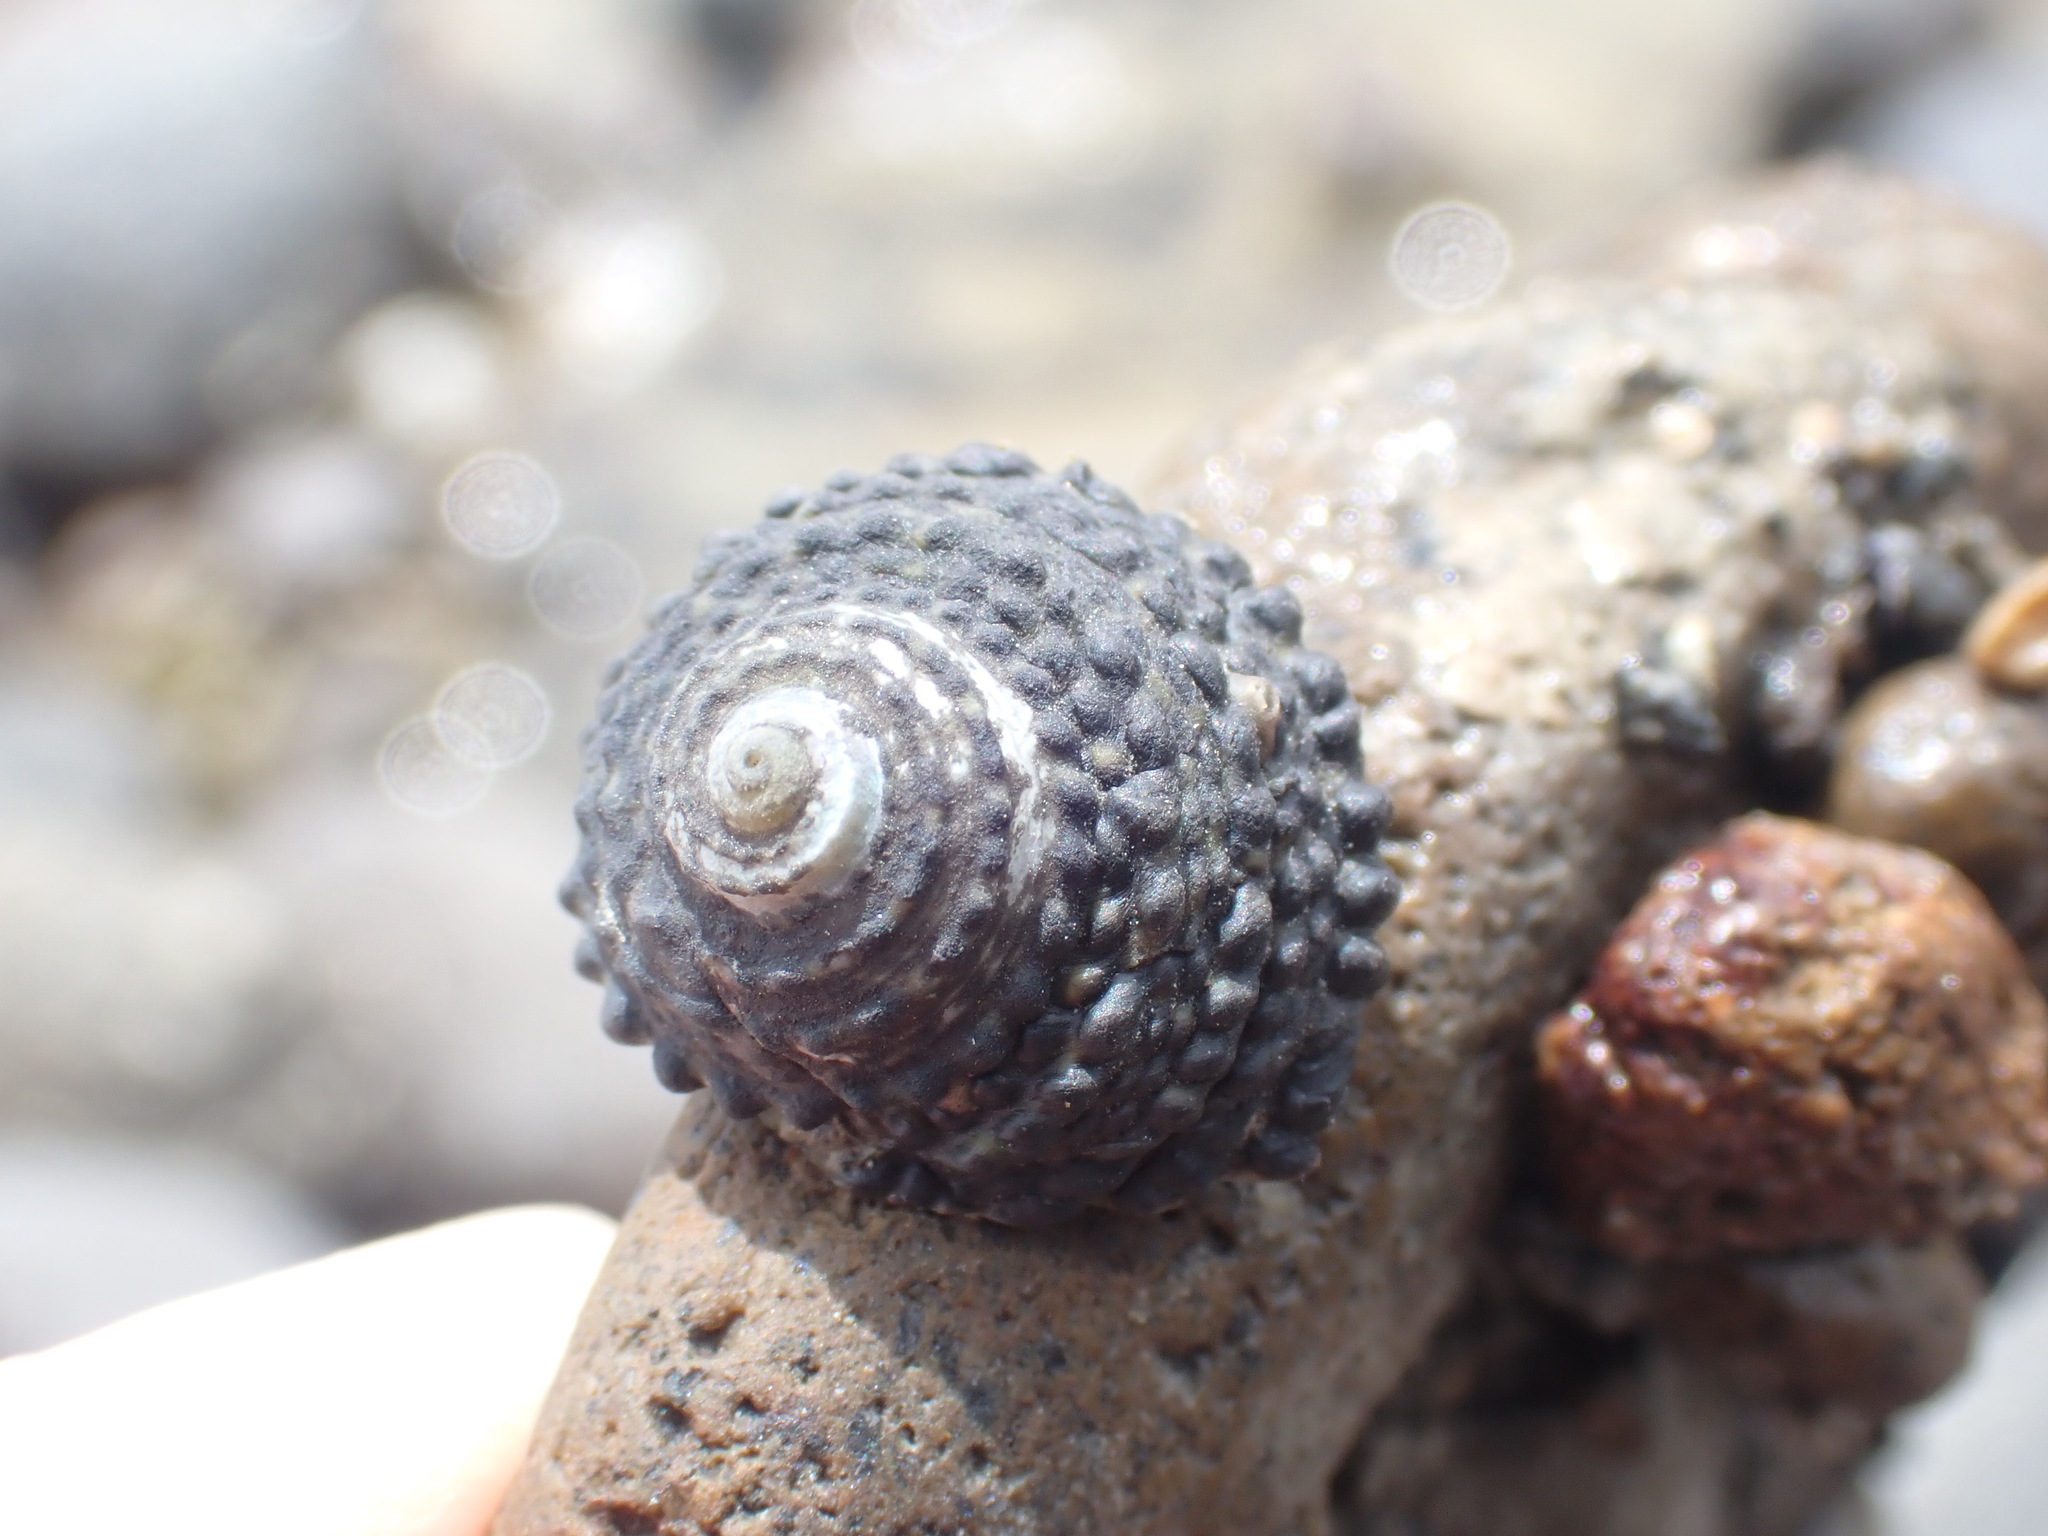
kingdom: Animalia
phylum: Mollusca
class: Gastropoda
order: Trochida
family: Trochidae
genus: Diloma
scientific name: Diloma bicanaliculatum
